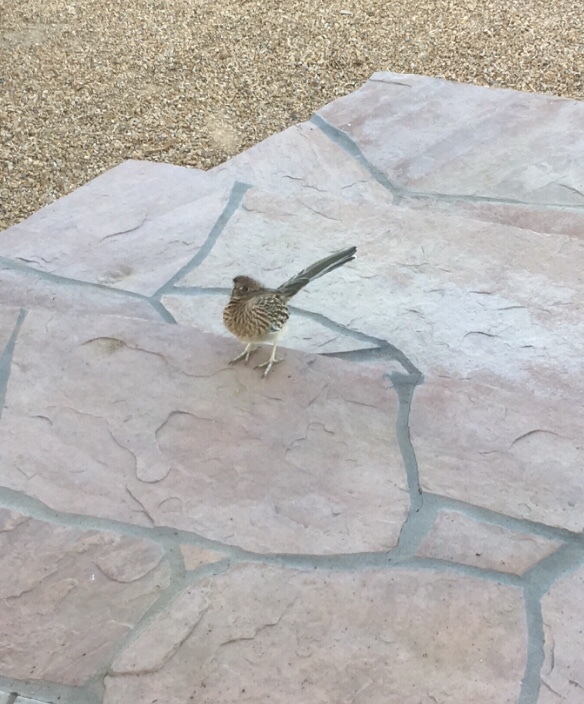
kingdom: Animalia
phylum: Chordata
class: Aves
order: Cuculiformes
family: Cuculidae
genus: Geococcyx
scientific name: Geococcyx californianus
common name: Greater roadrunner
